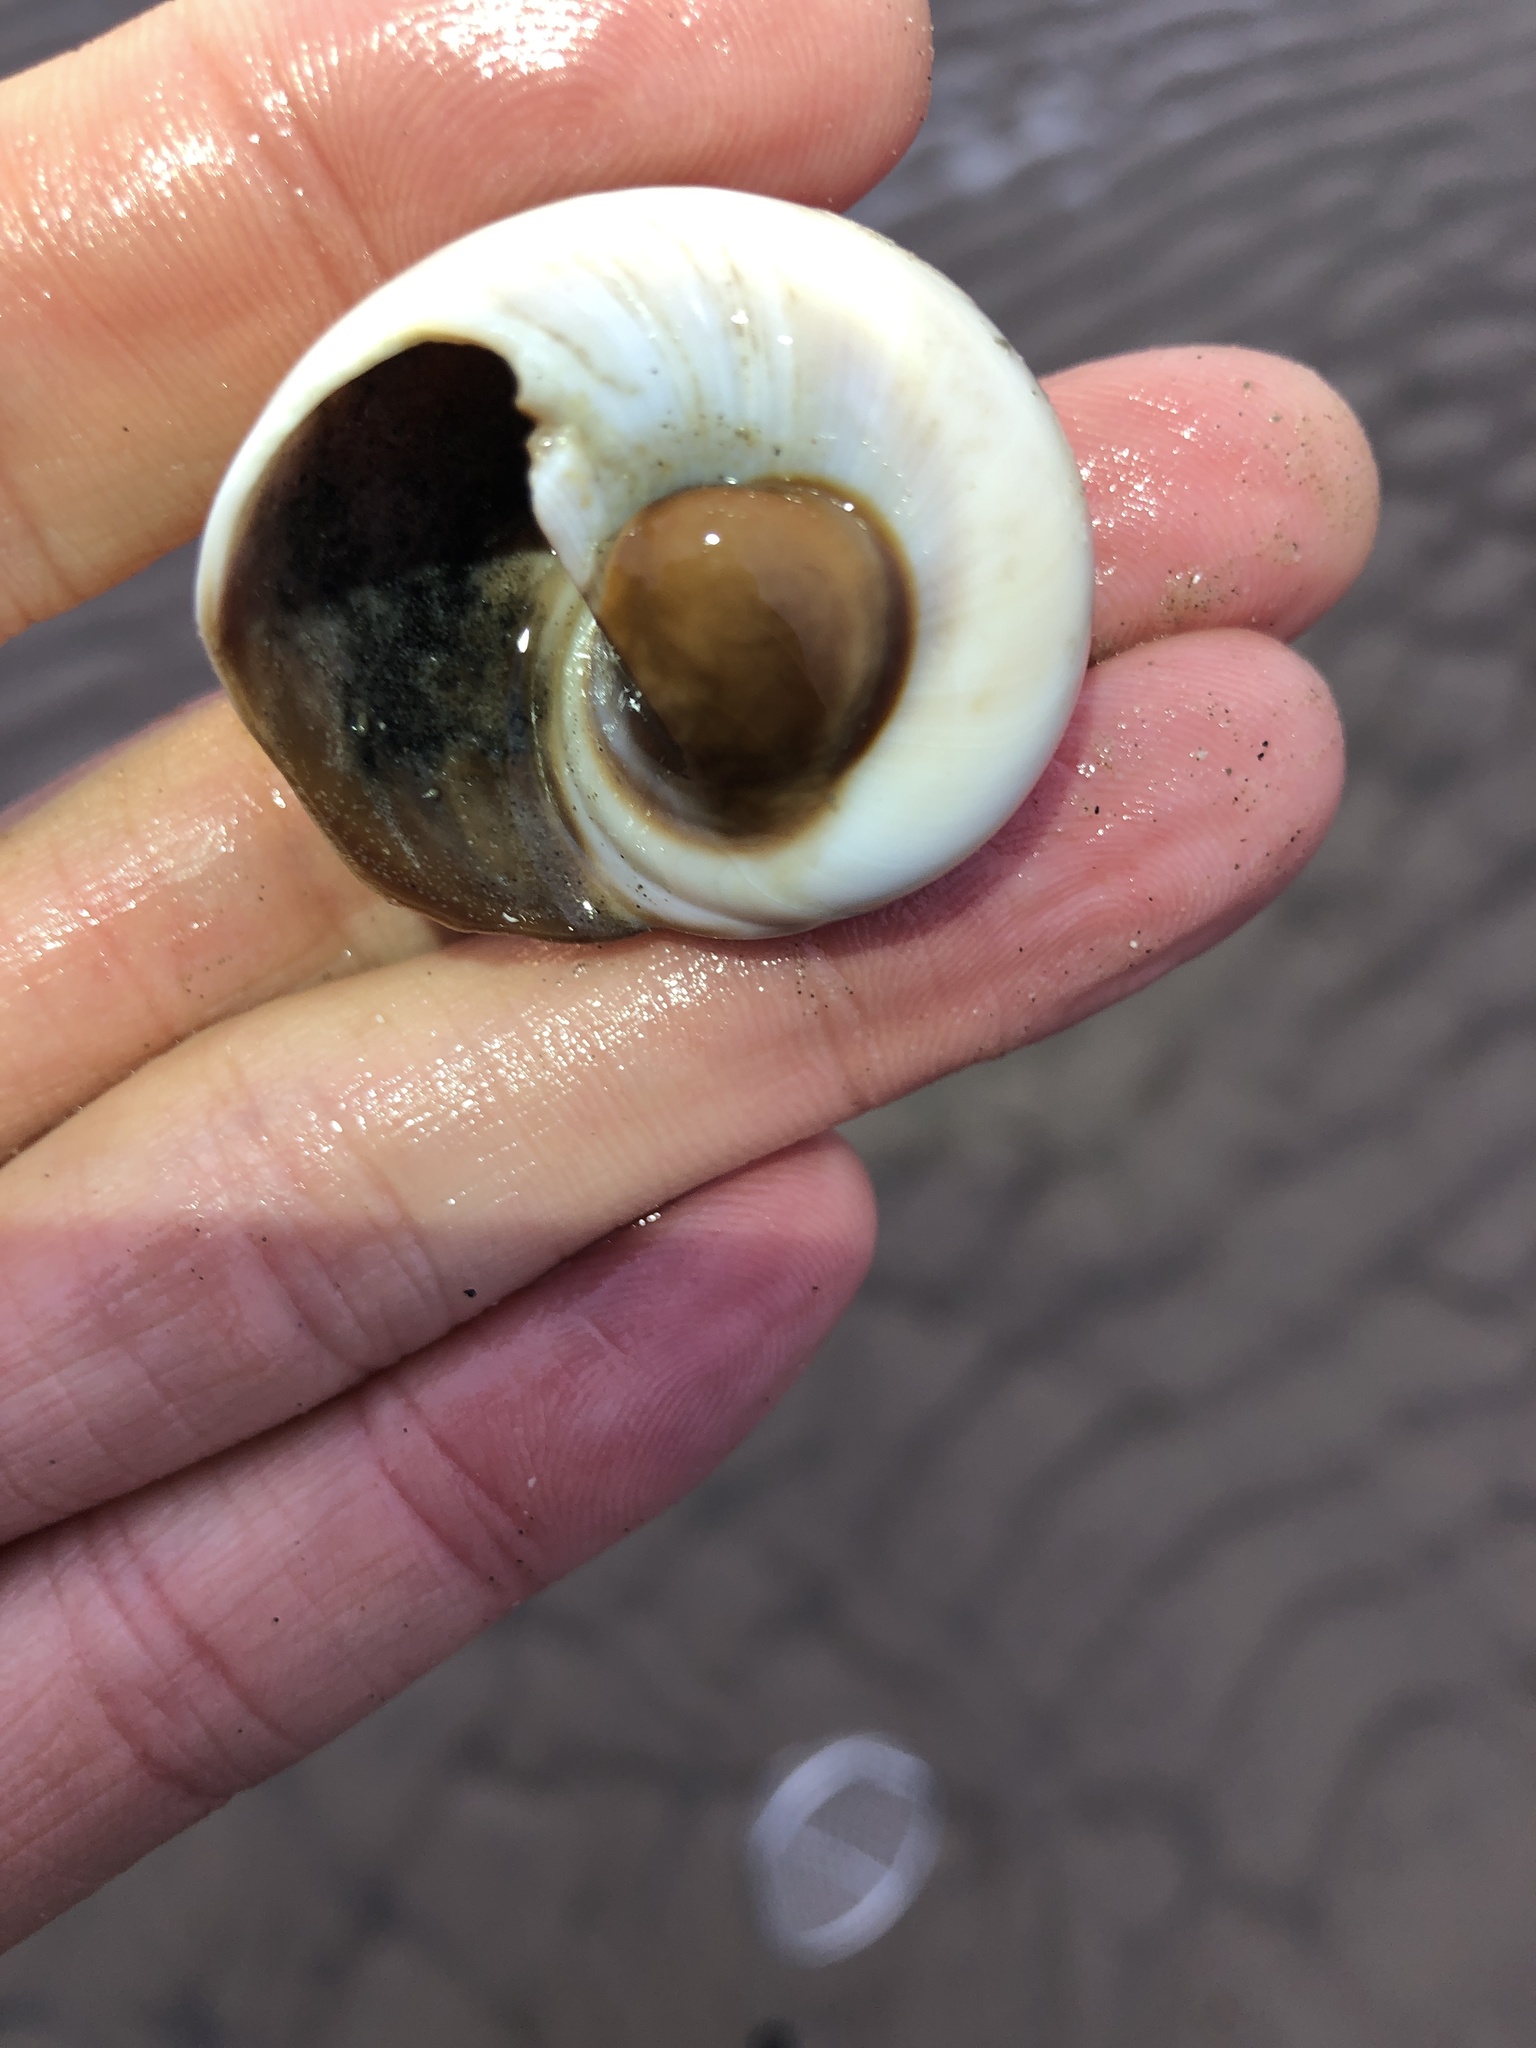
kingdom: Animalia
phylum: Mollusca
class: Gastropoda
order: Littorinimorpha
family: Naticidae
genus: Neverita
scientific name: Neverita duplicata
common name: Lobed moonsnail
